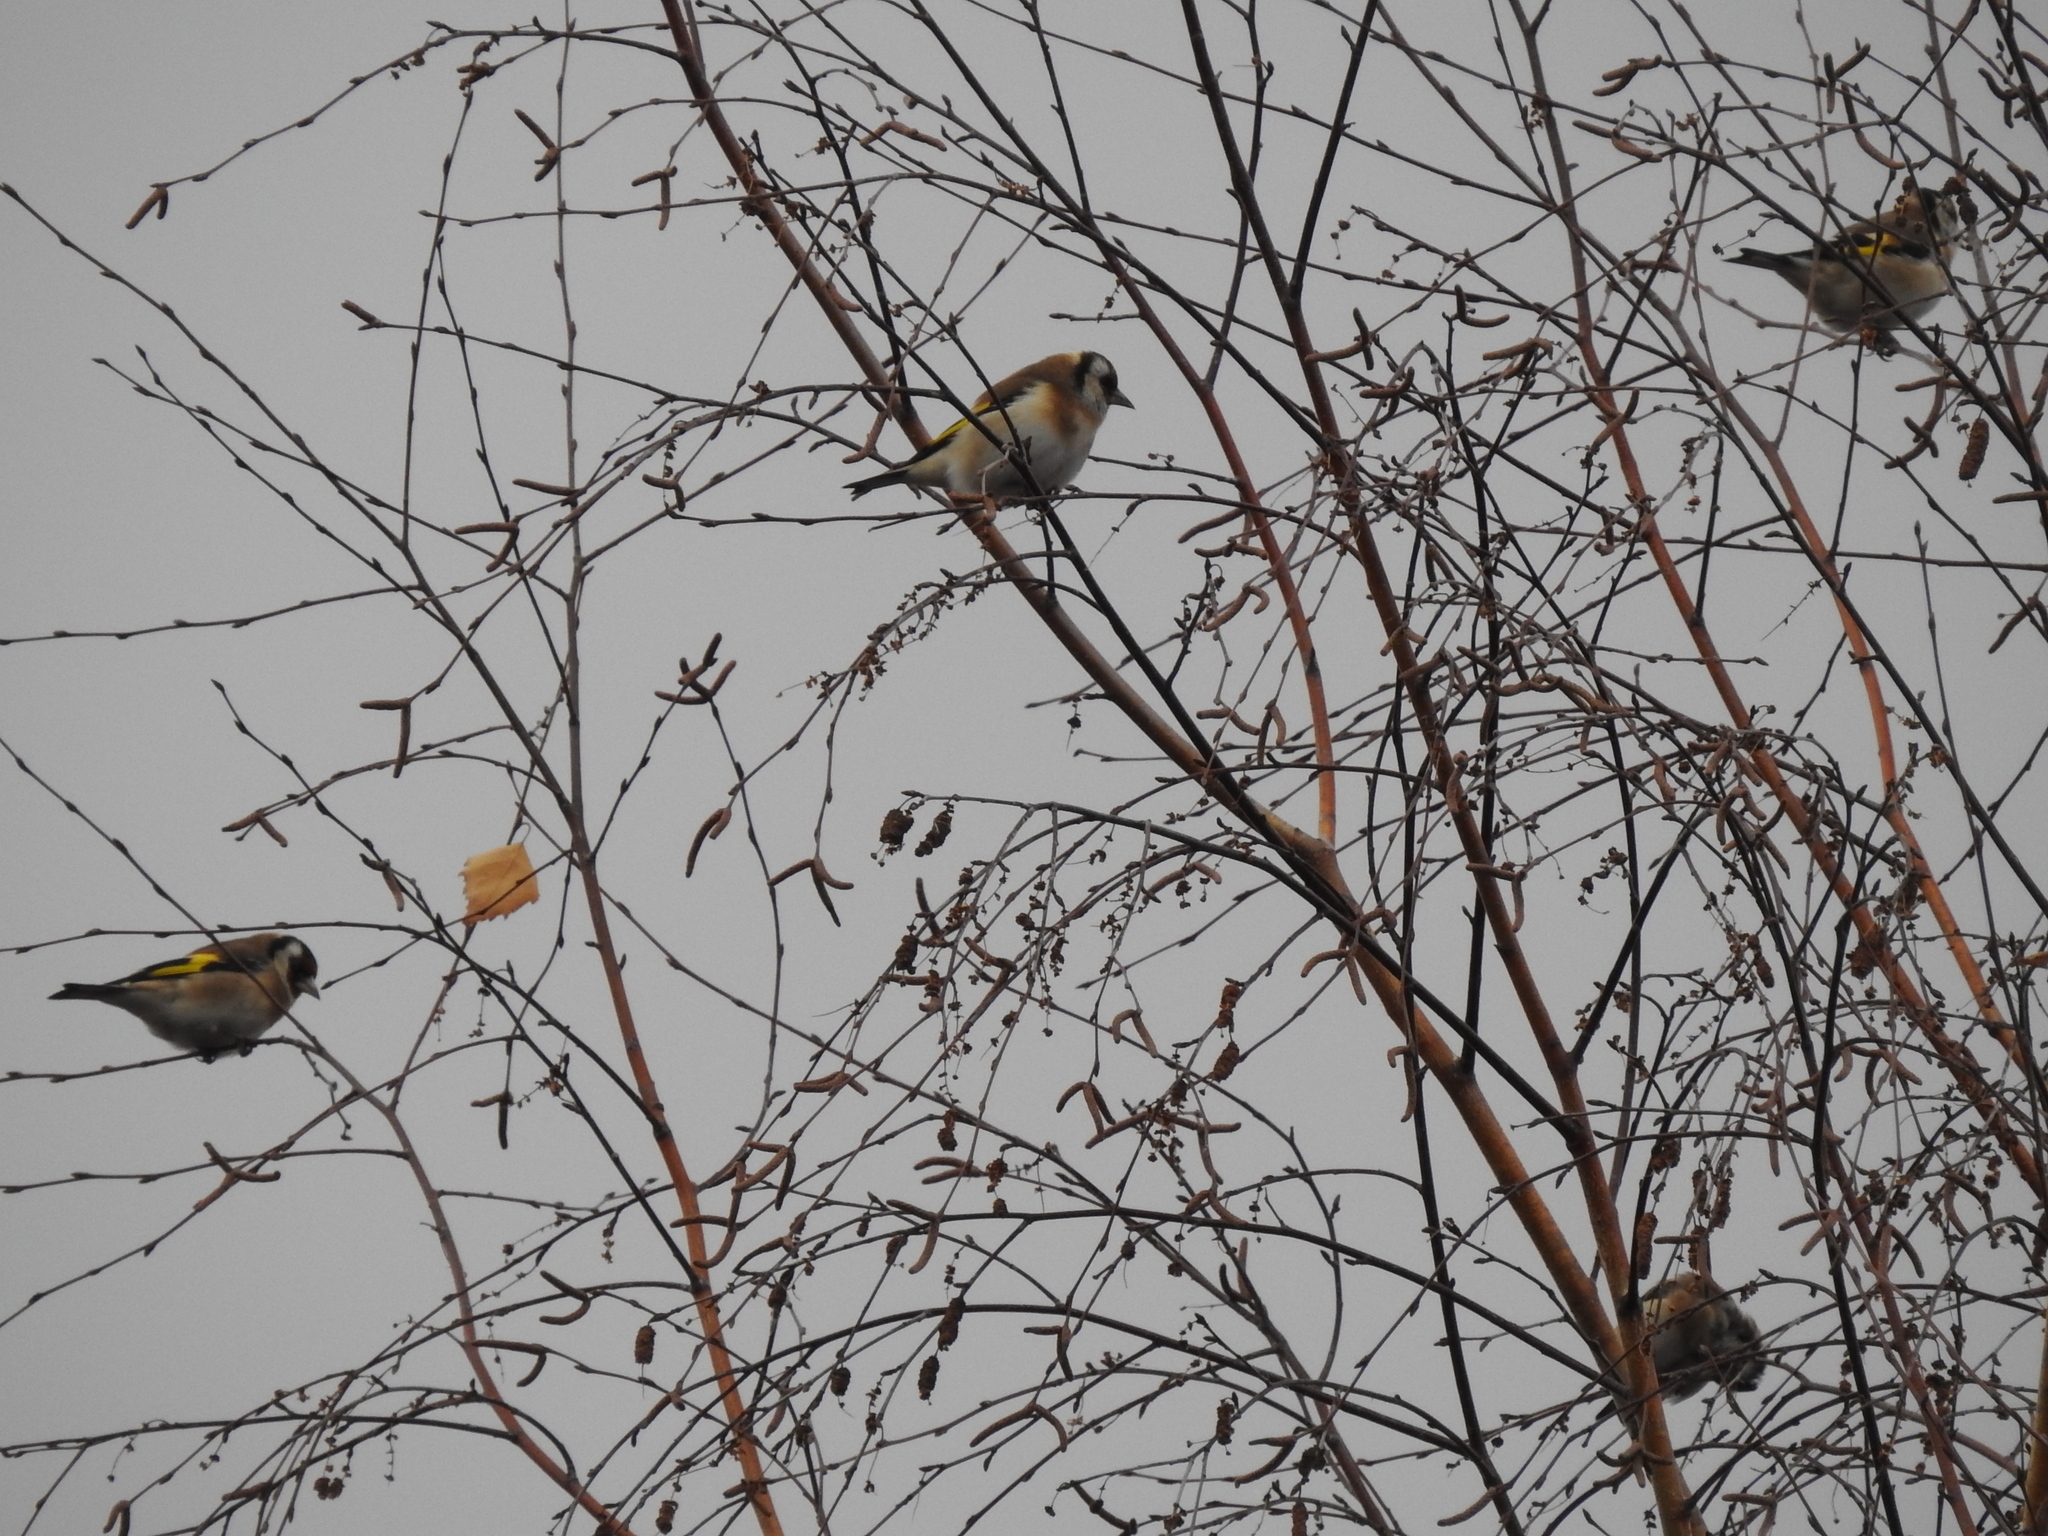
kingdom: Animalia
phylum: Chordata
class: Aves
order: Passeriformes
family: Fringillidae
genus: Carduelis
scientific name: Carduelis carduelis
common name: European goldfinch
